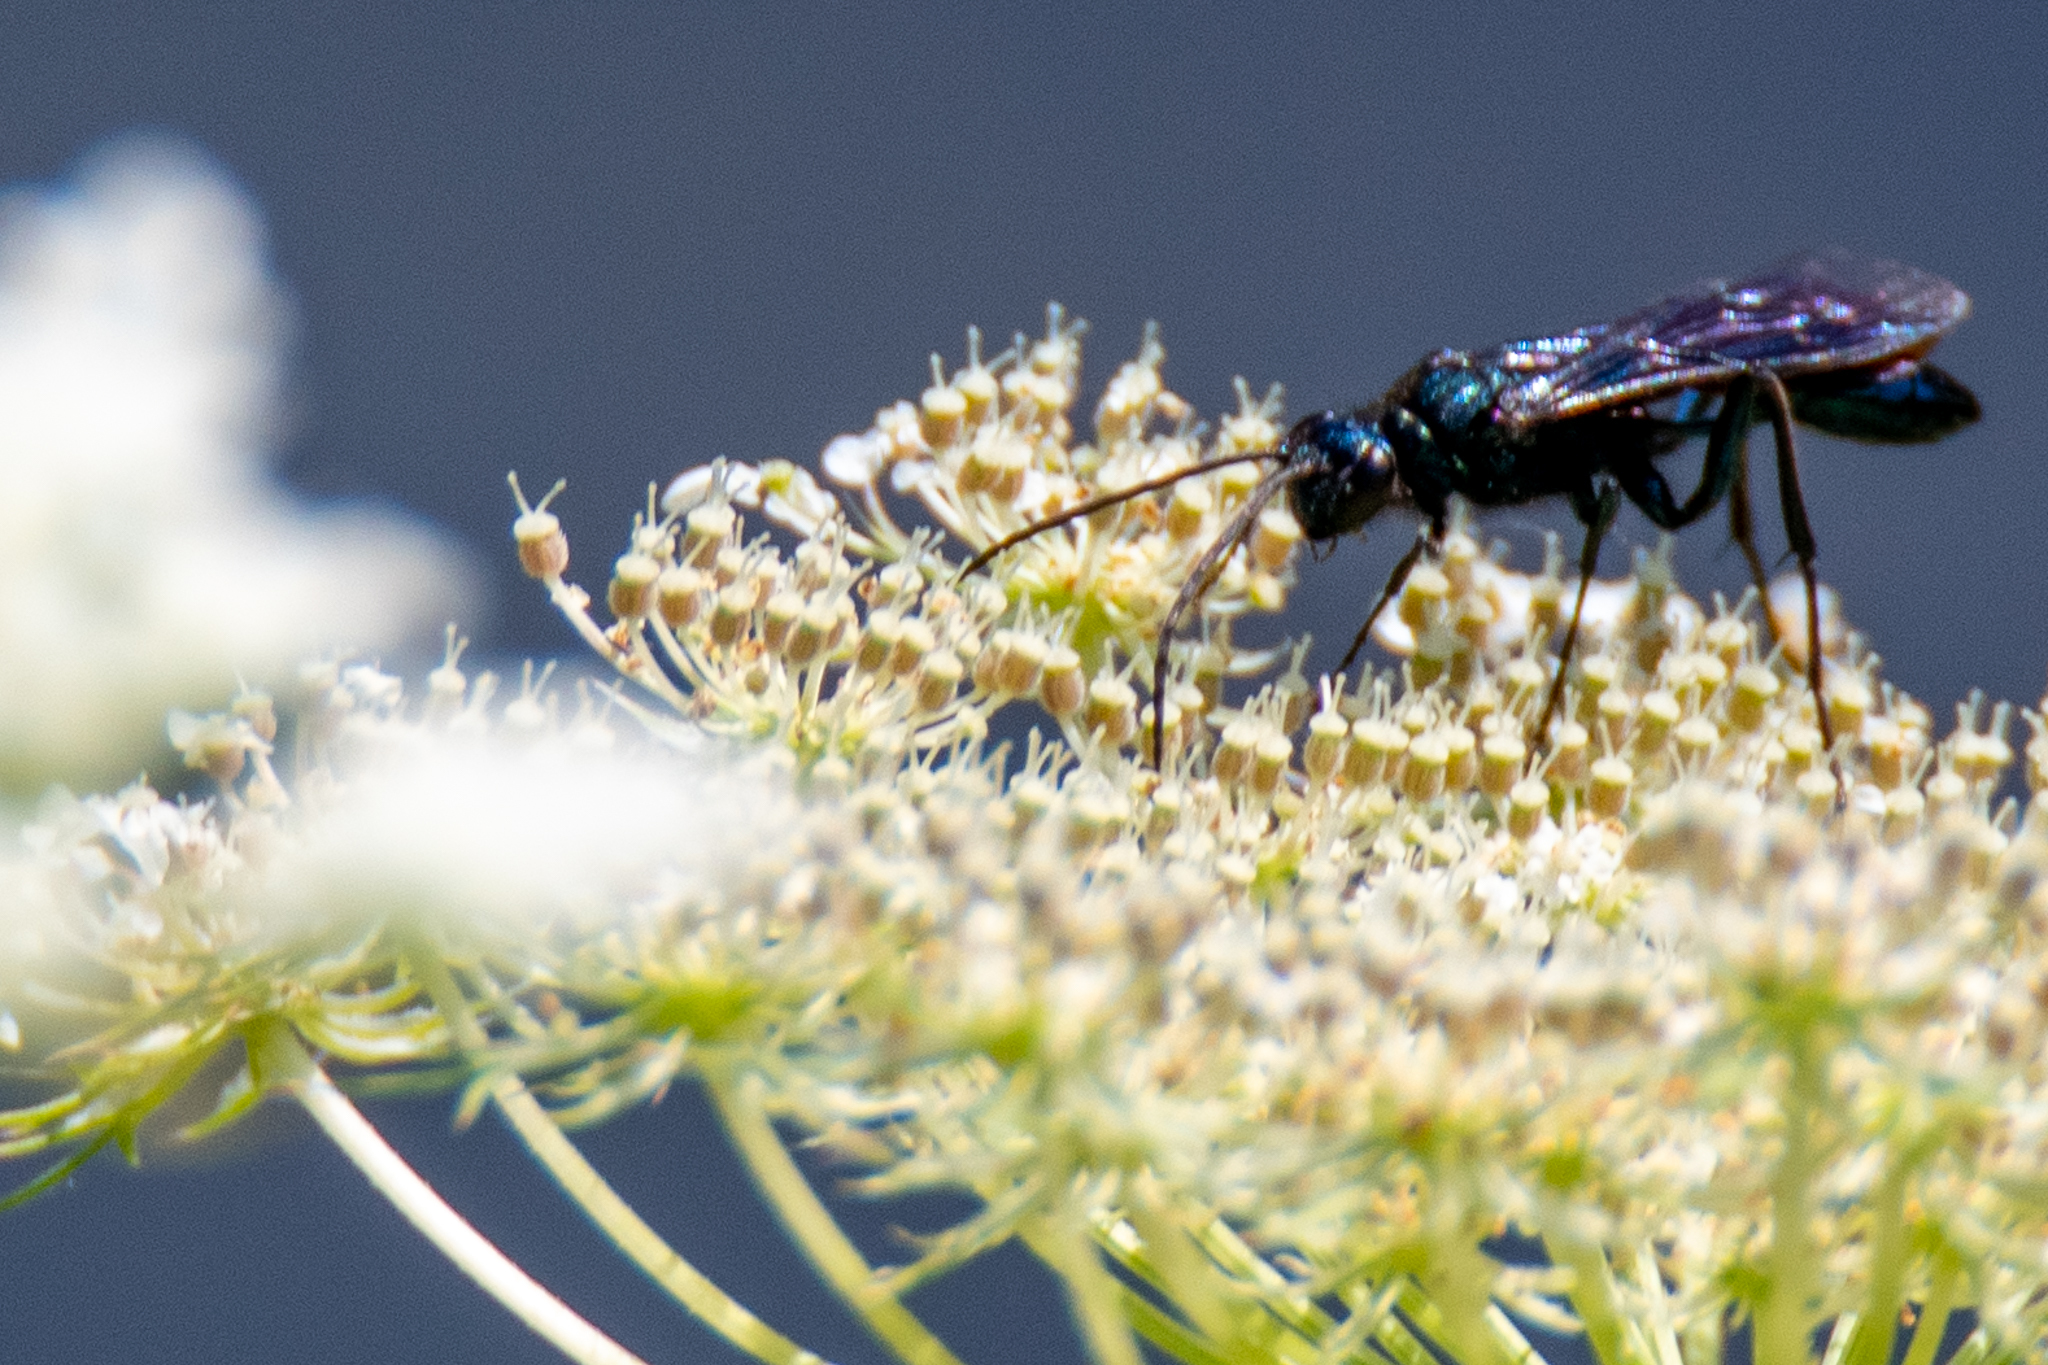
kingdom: Animalia
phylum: Arthropoda
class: Insecta
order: Hymenoptera
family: Sphecidae
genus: Chalybion
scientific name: Chalybion californicum
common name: Mud dauber
